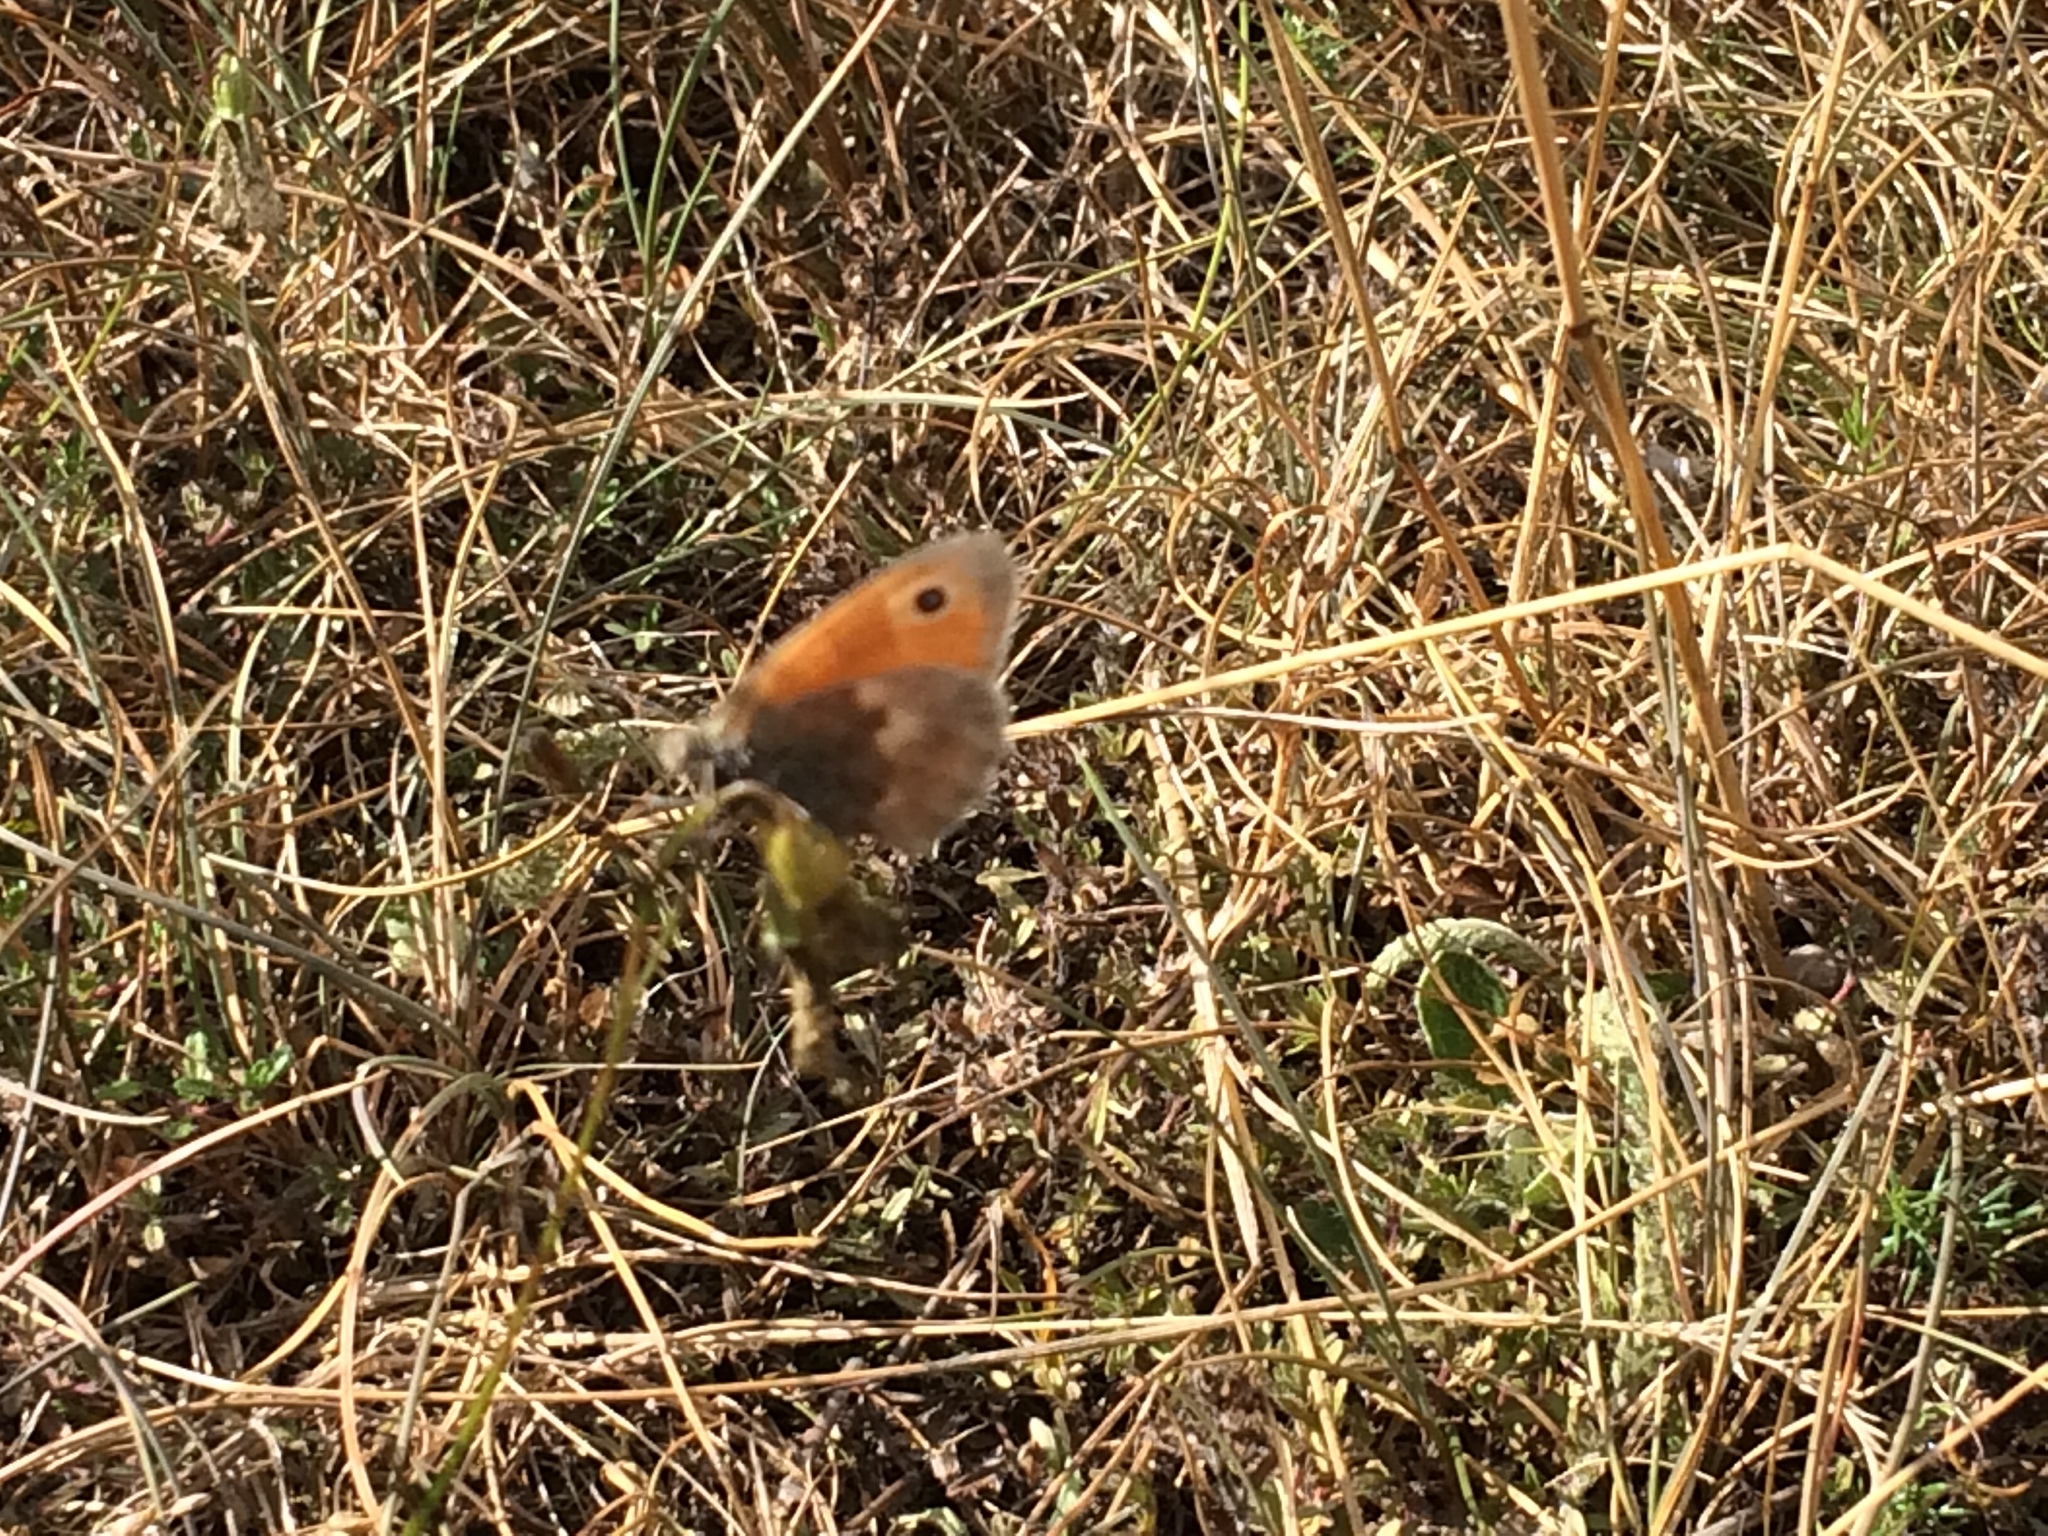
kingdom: Animalia
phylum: Arthropoda
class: Insecta
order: Lepidoptera
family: Nymphalidae
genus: Coenonympha
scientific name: Coenonympha pamphilus
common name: Small heath
